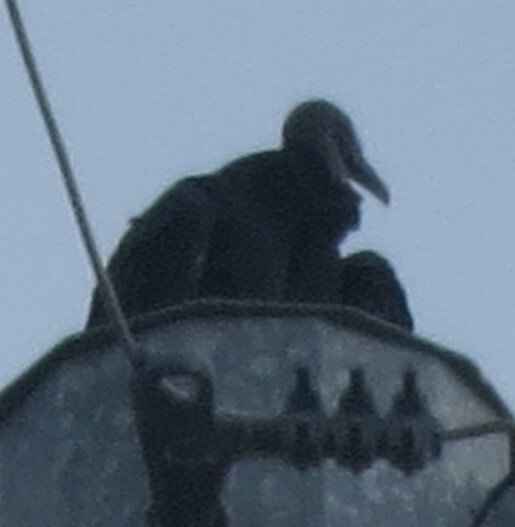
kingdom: Animalia
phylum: Chordata
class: Aves
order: Accipitriformes
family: Cathartidae
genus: Coragyps
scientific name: Coragyps atratus
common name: Black vulture
